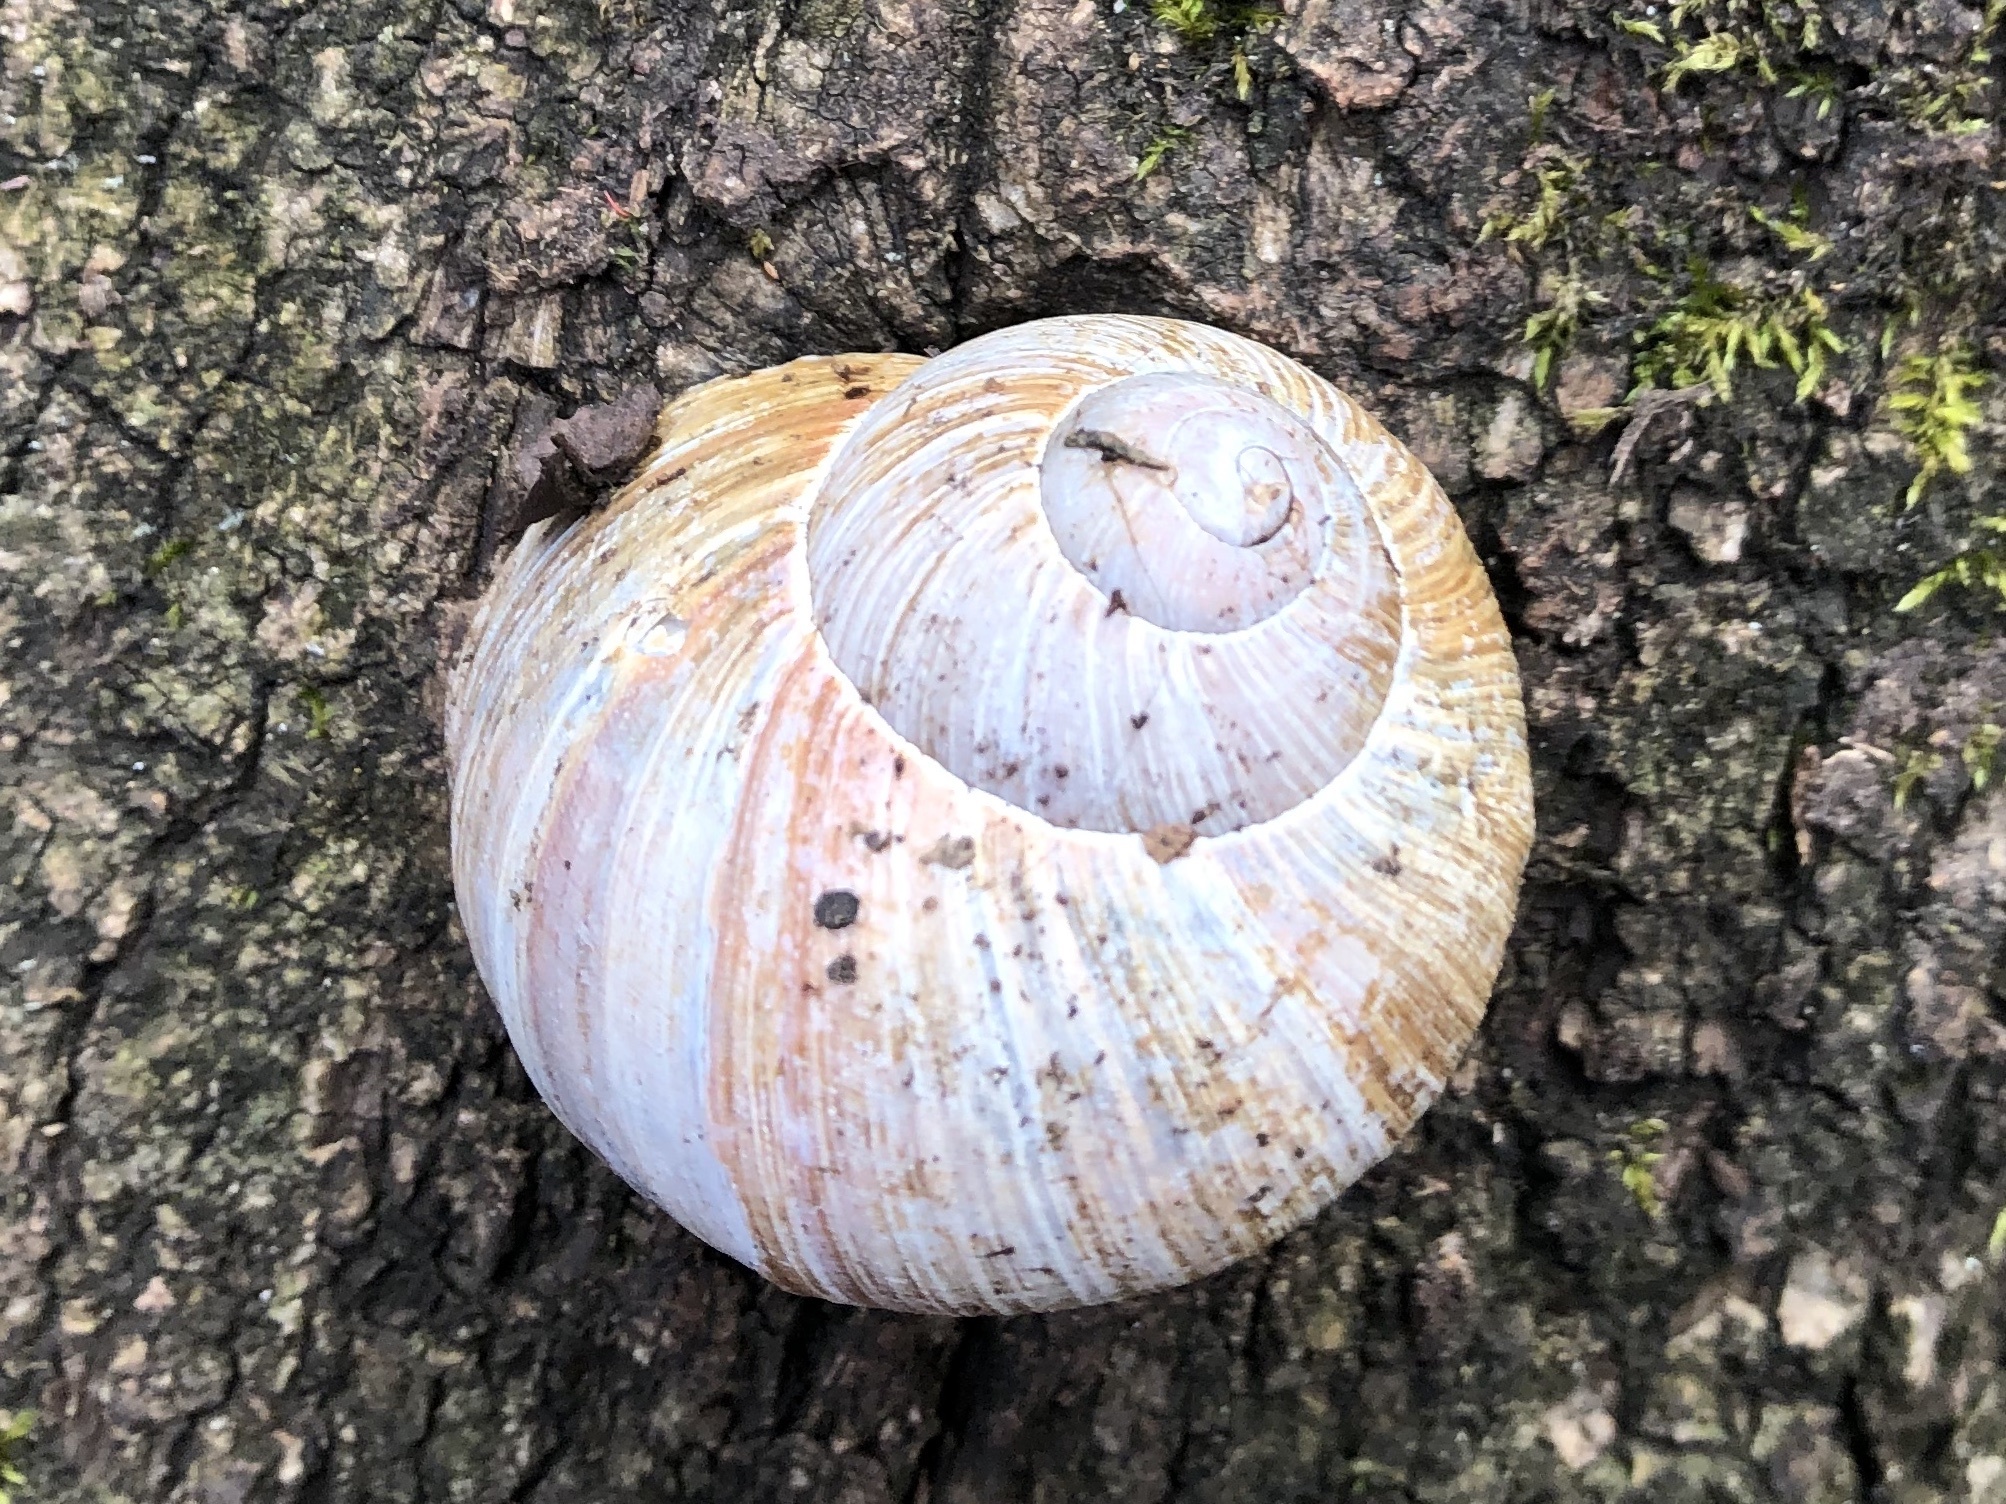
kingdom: Animalia
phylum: Mollusca
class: Gastropoda
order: Stylommatophora
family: Helicidae
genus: Helix
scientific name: Helix pomatia
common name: Roman snail
